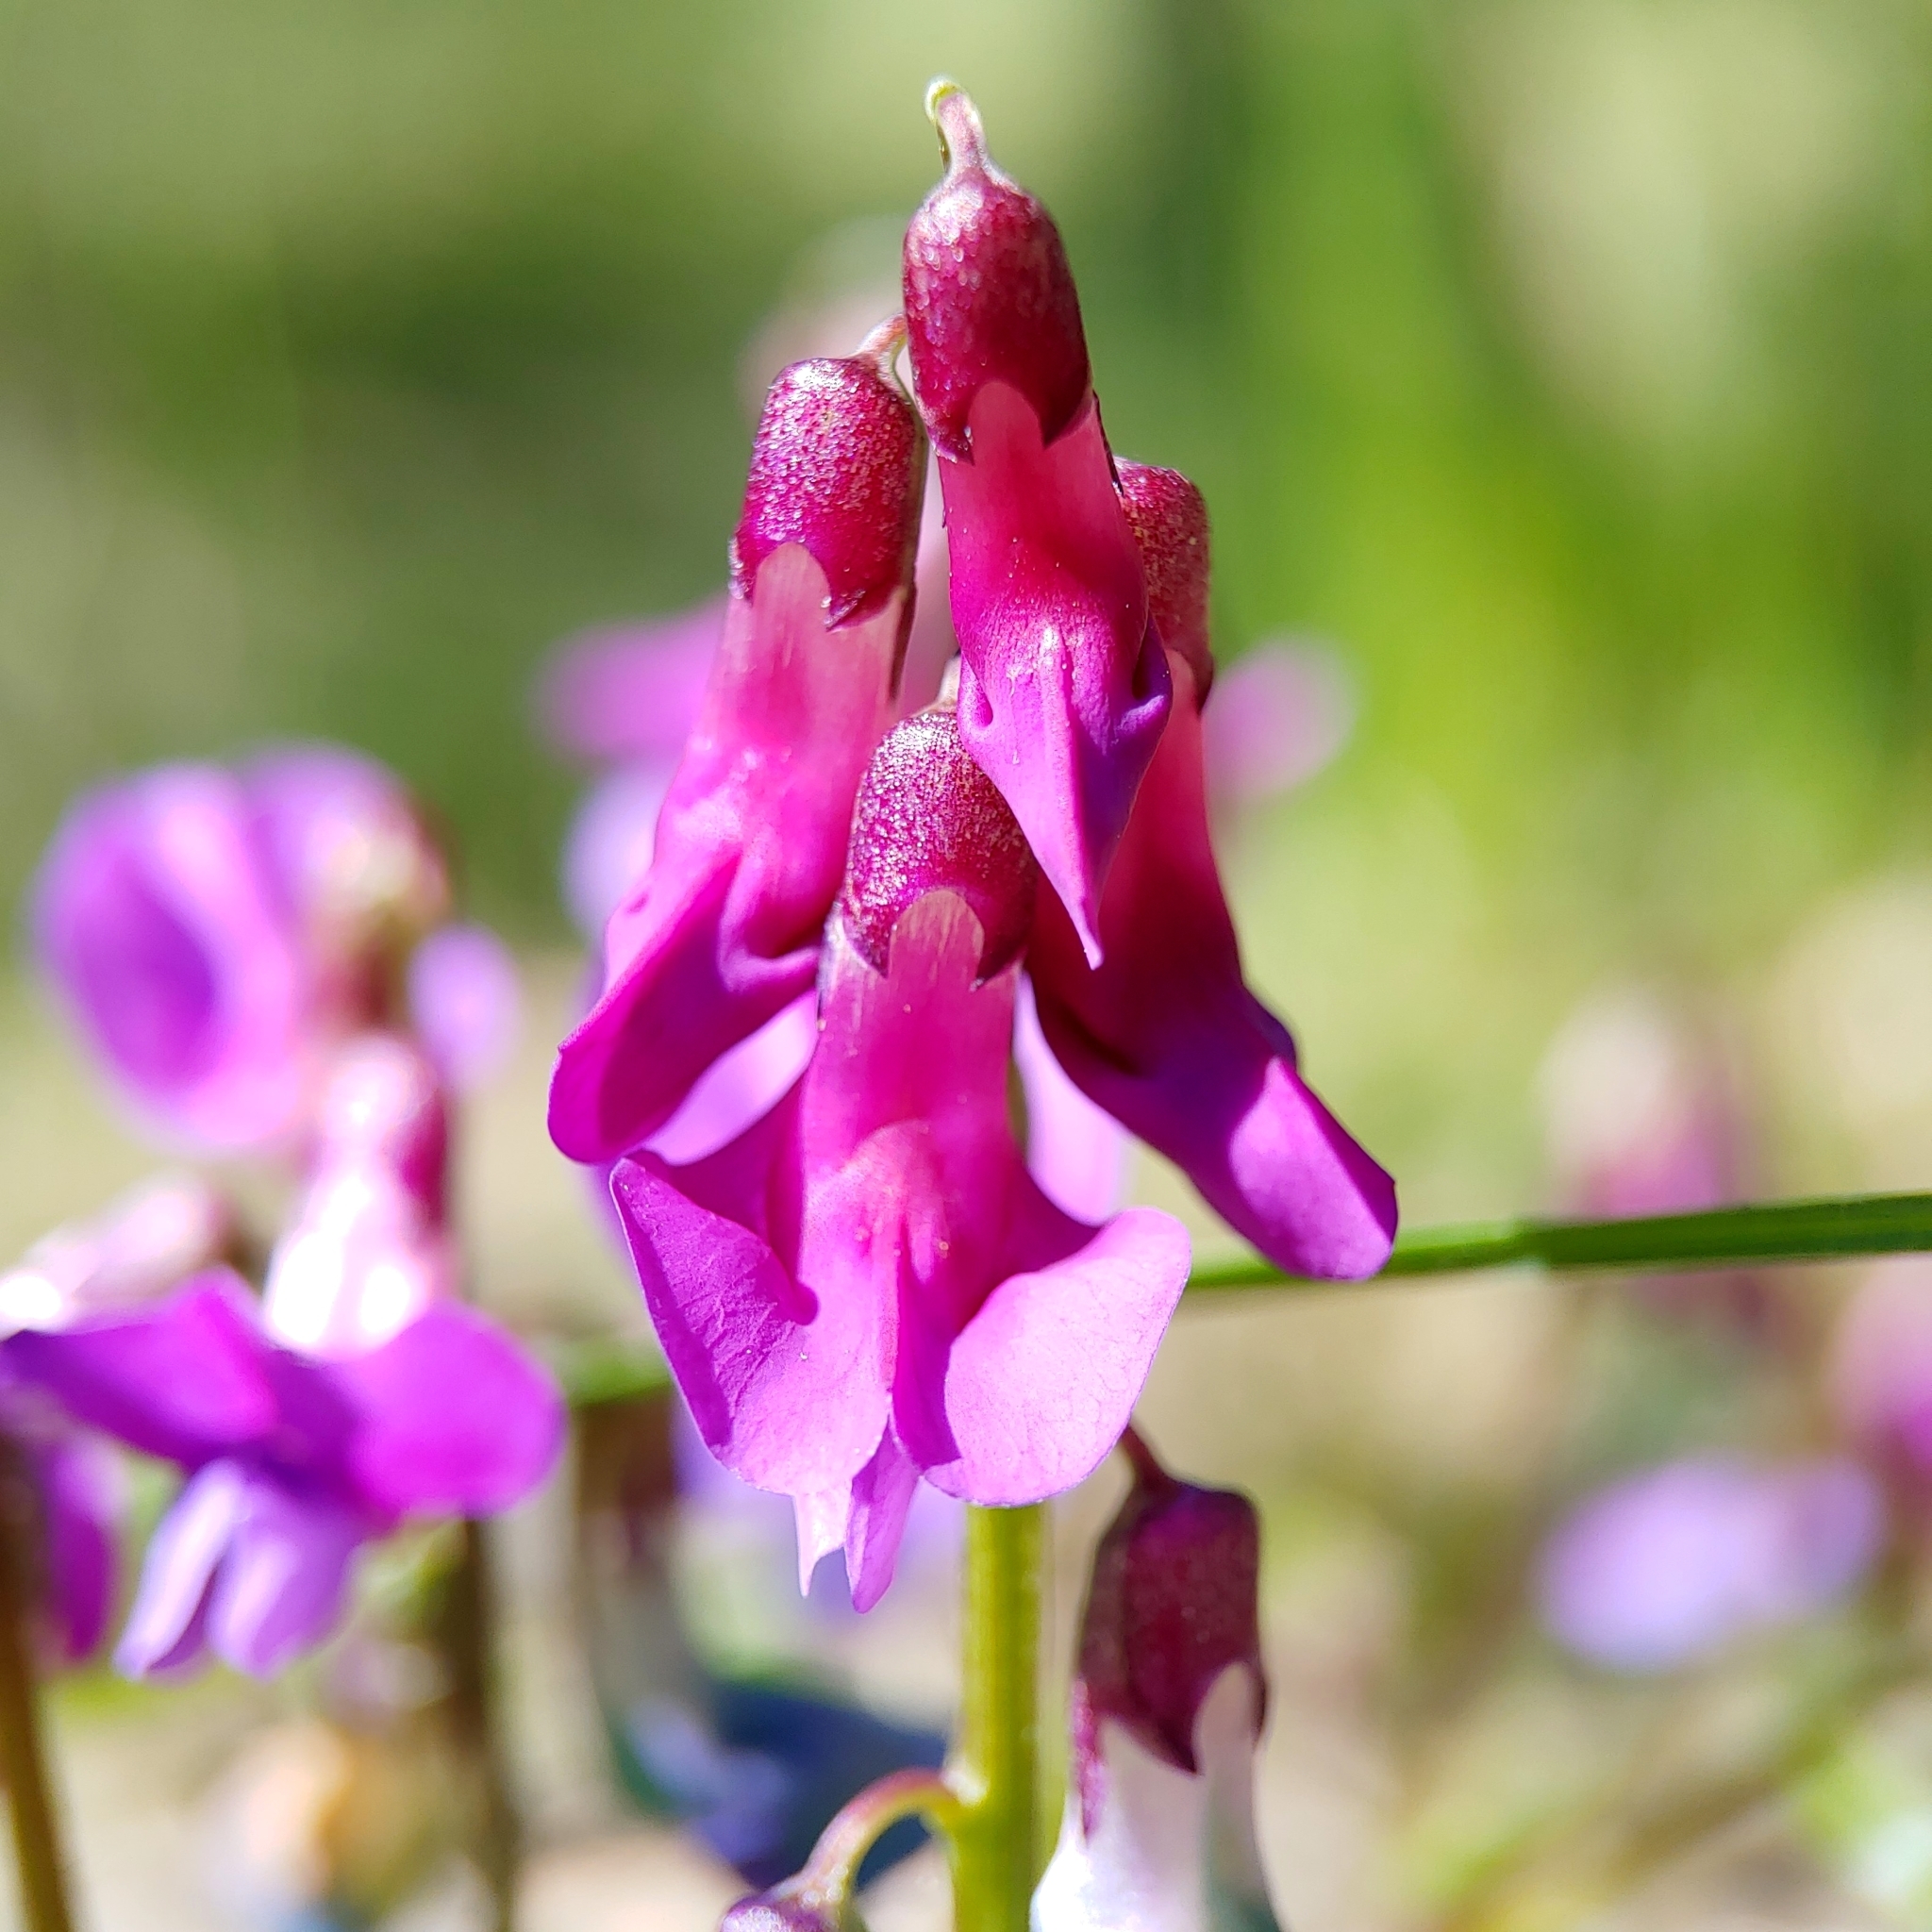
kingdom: Plantae
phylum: Tracheophyta
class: Magnoliopsida
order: Fabales
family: Fabaceae
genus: Lathyrus
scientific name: Lathyrus vernus
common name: Spring pea
